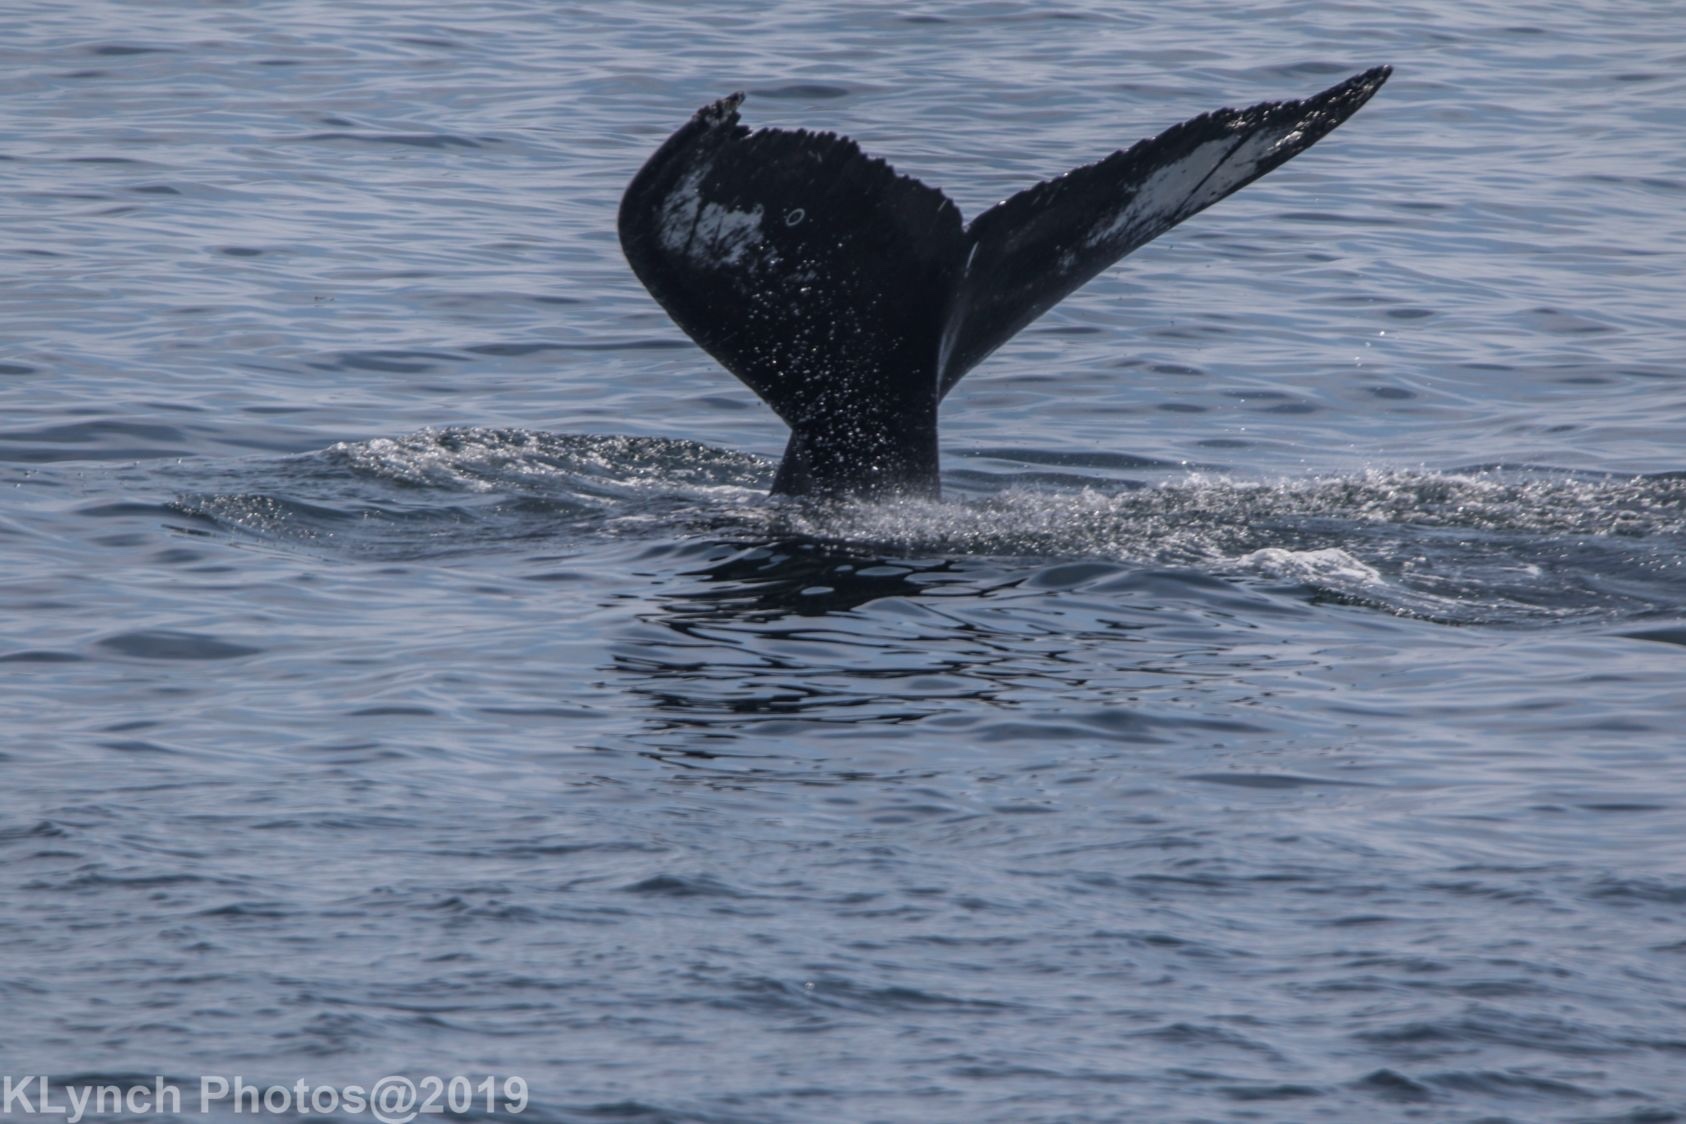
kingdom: Animalia
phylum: Chordata
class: Mammalia
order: Cetacea
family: Balaenopteridae
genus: Megaptera
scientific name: Megaptera novaeangliae
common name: Humpback whale
